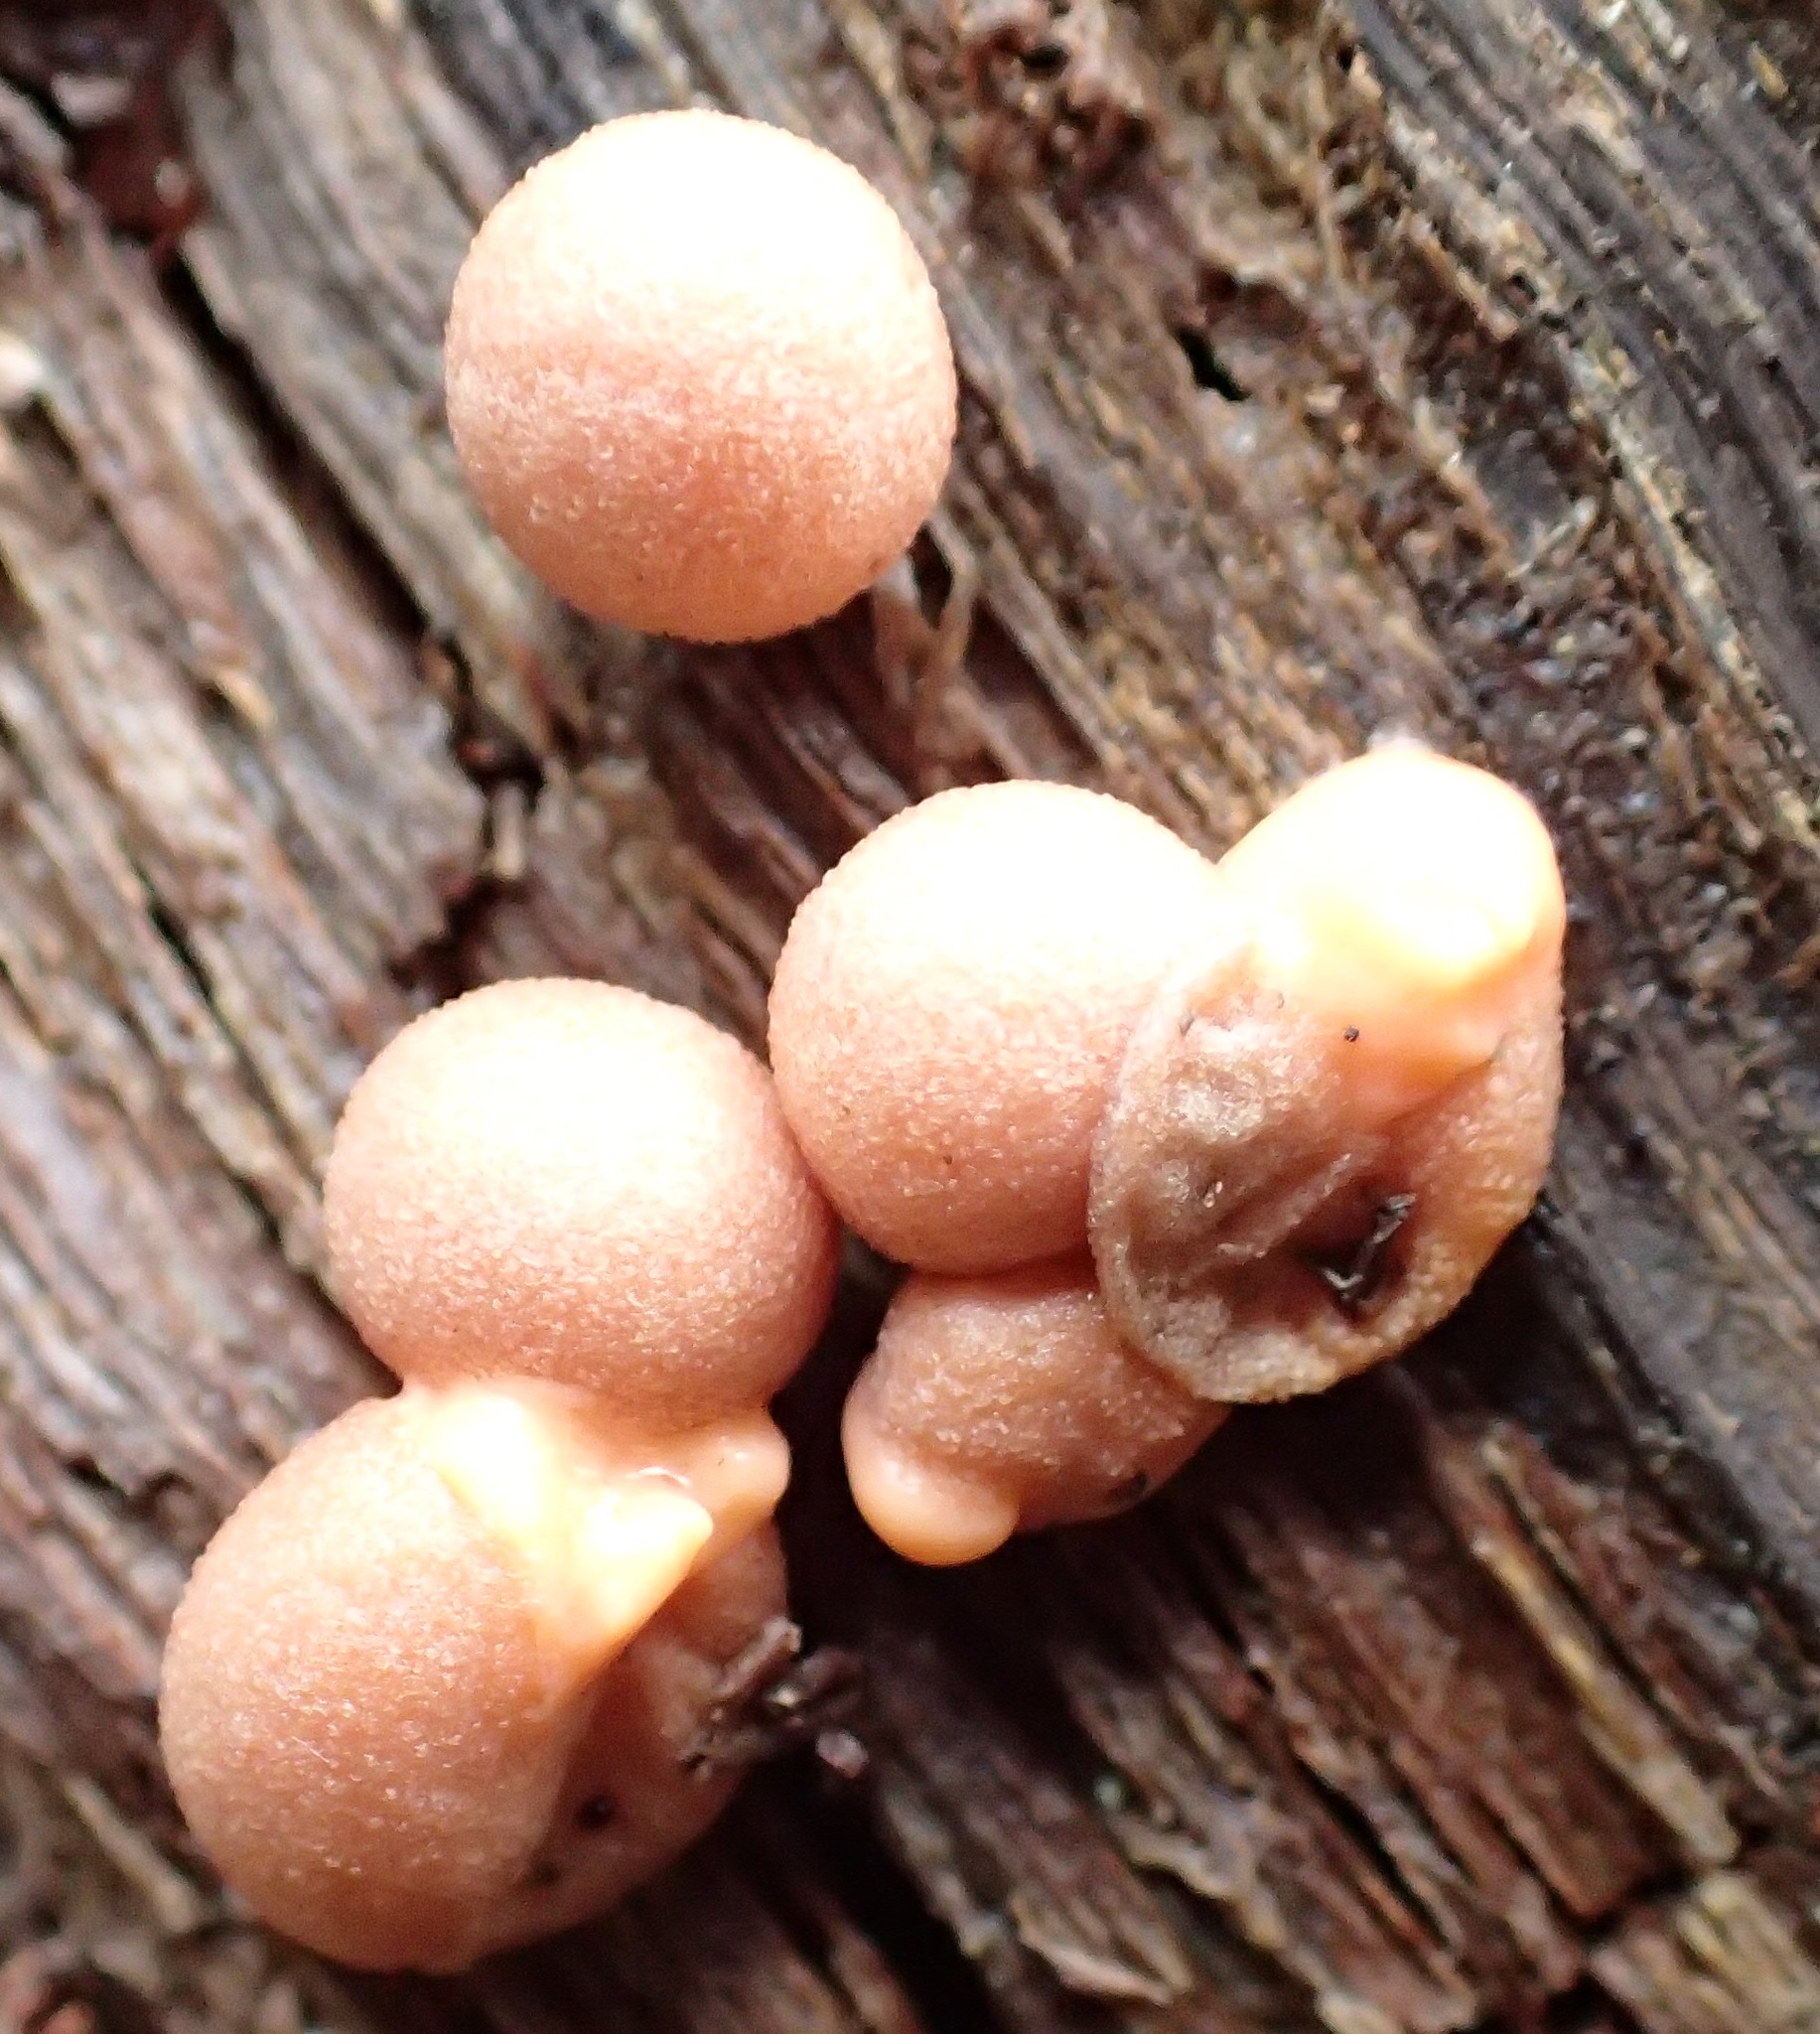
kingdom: Protozoa
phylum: Mycetozoa
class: Myxomycetes
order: Cribrariales
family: Tubiferaceae
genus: Lycogala
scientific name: Lycogala epidendrum
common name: Wolf's milk
